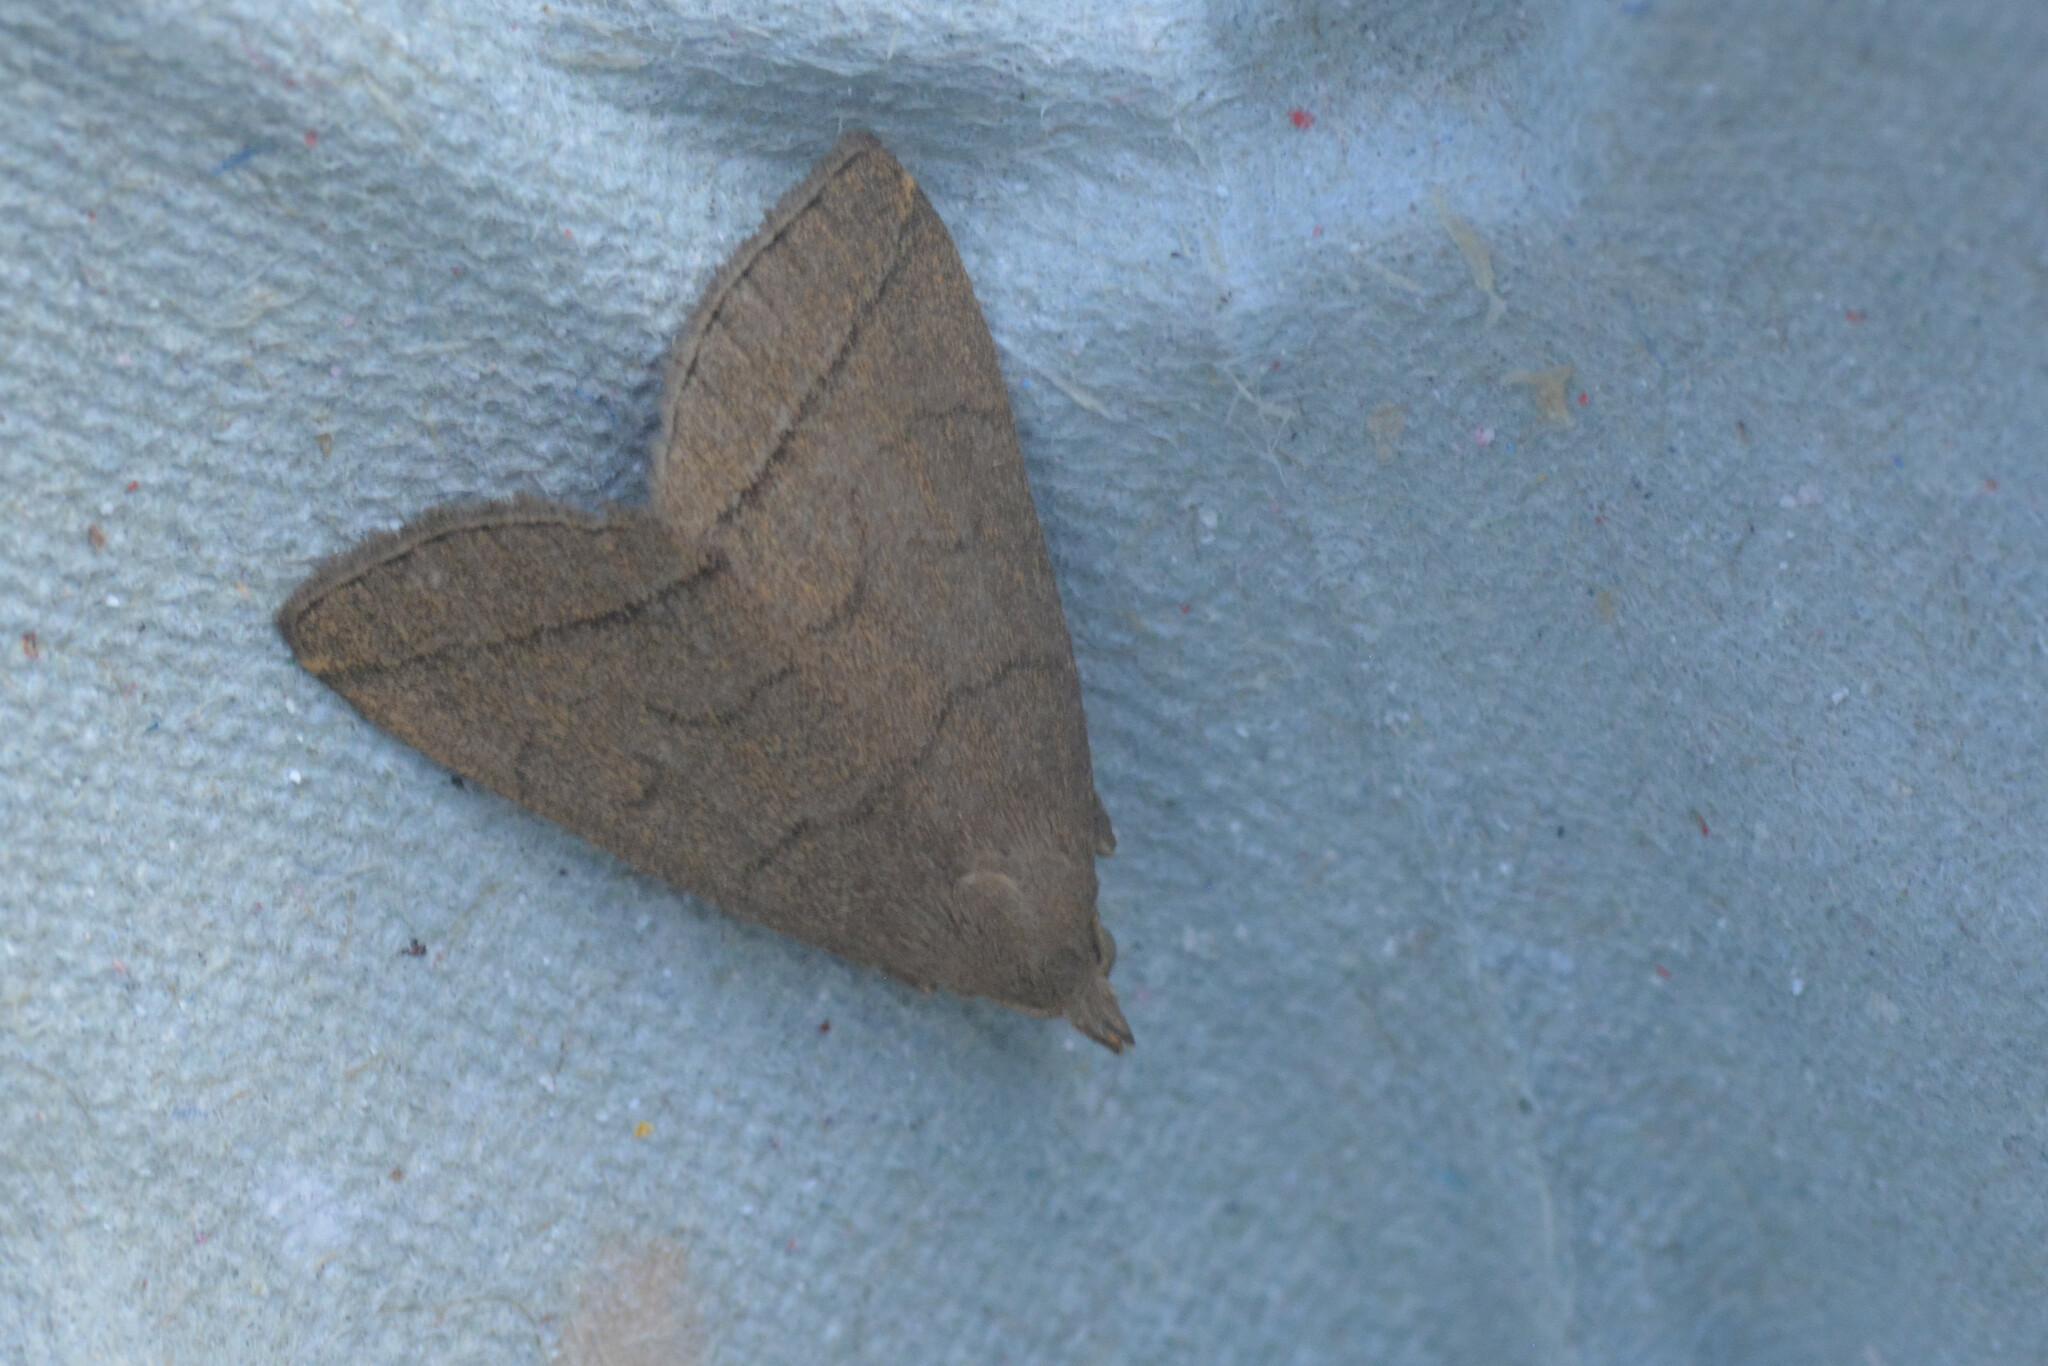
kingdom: Animalia
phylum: Arthropoda
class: Insecta
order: Lepidoptera
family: Erebidae
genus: Herminia
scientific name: Herminia tarsipennalis
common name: Fan-foot
